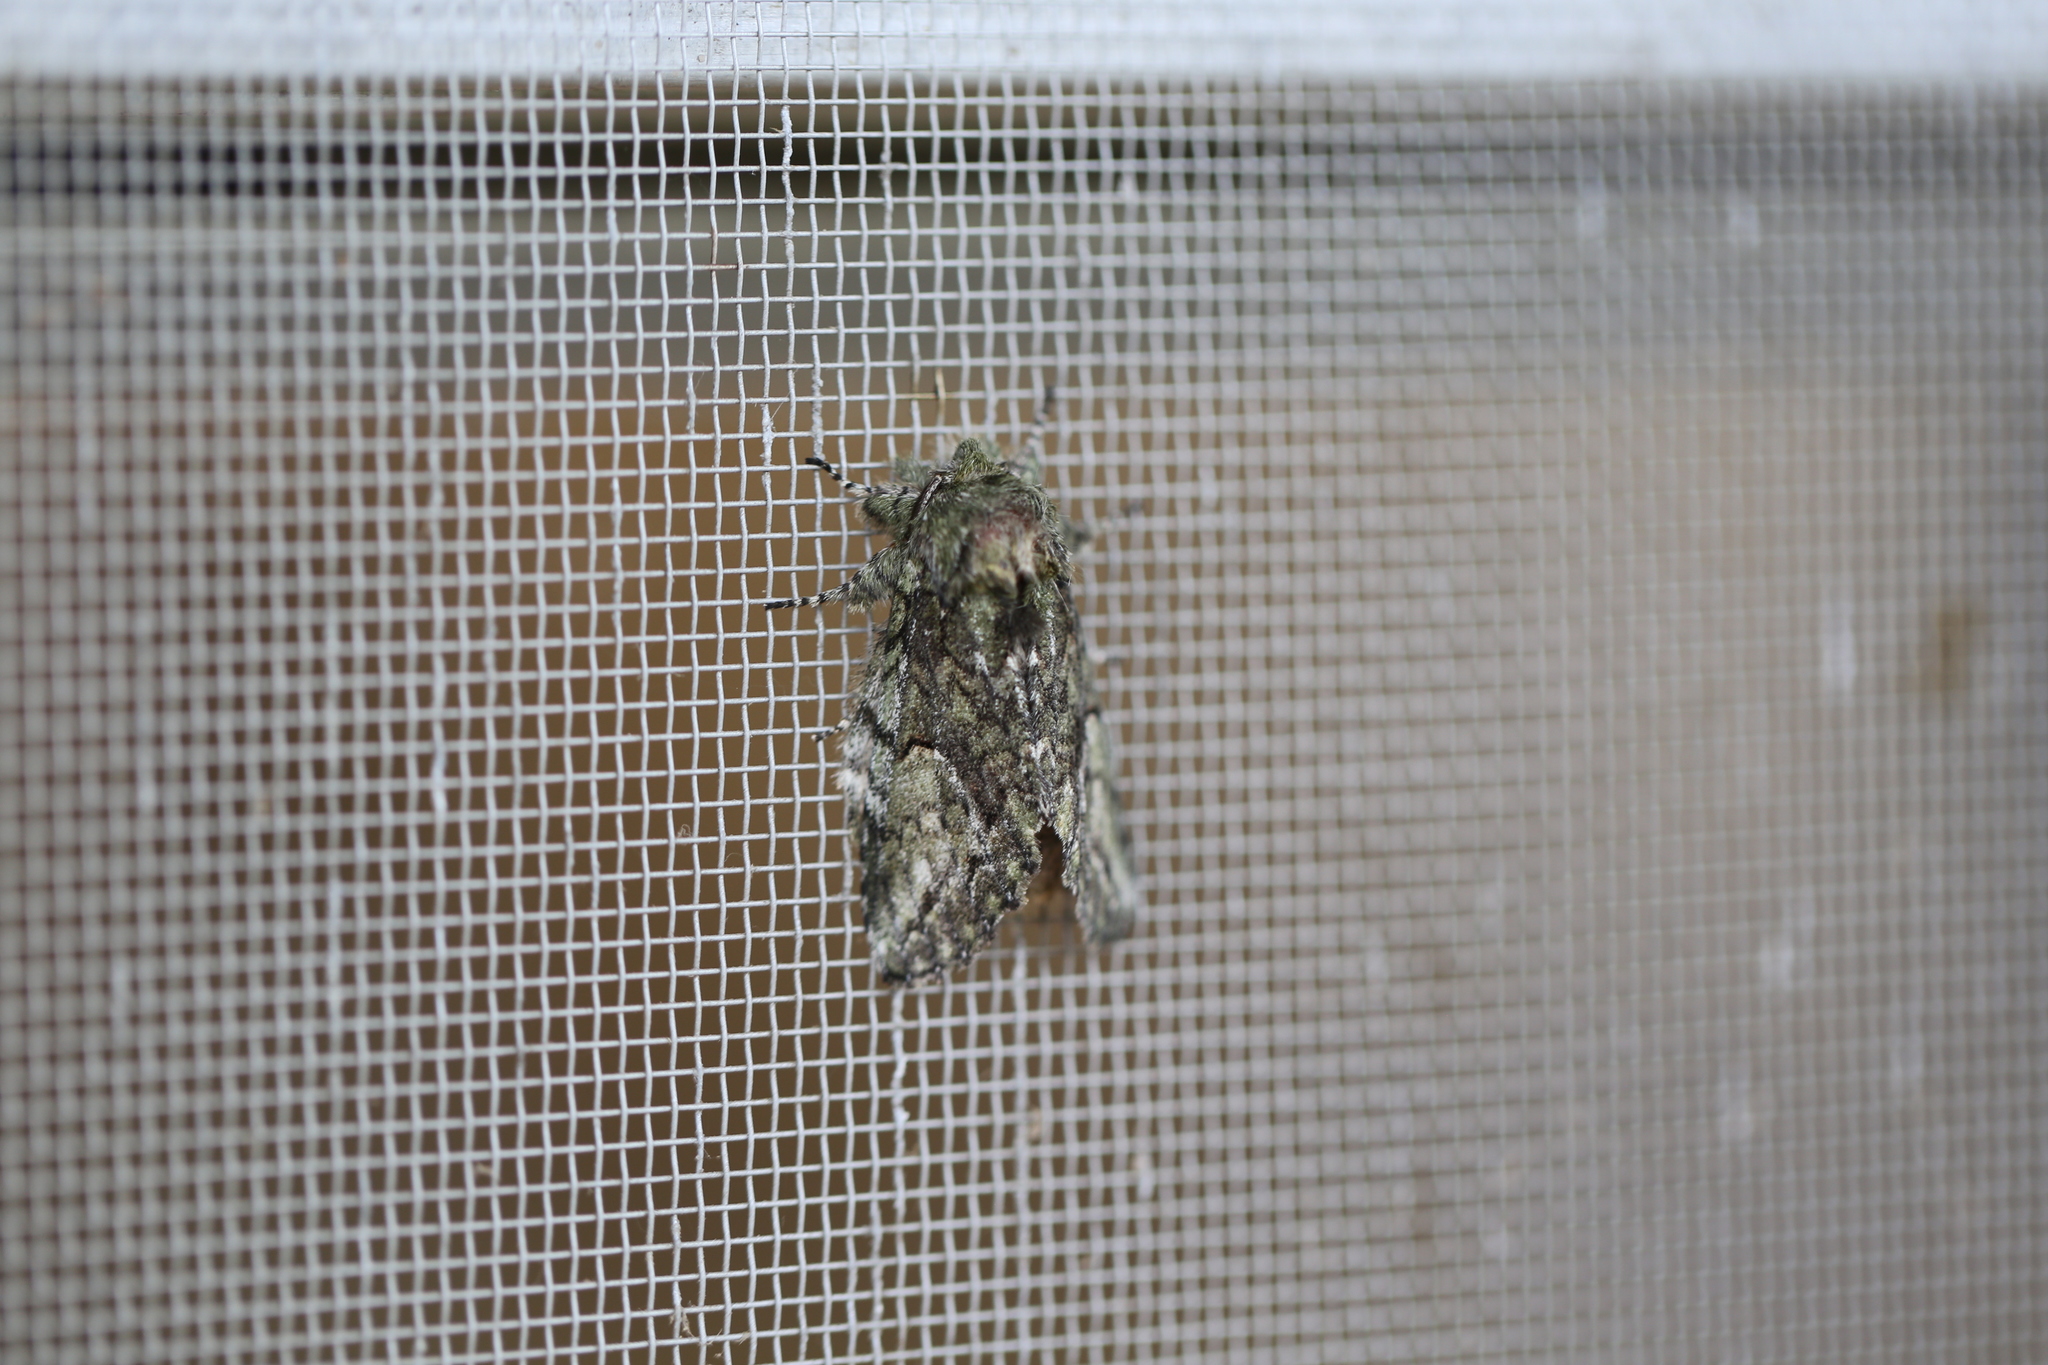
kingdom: Animalia
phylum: Arthropoda
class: Insecta
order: Lepidoptera
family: Notodontidae
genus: Heterocampa
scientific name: Heterocampa
